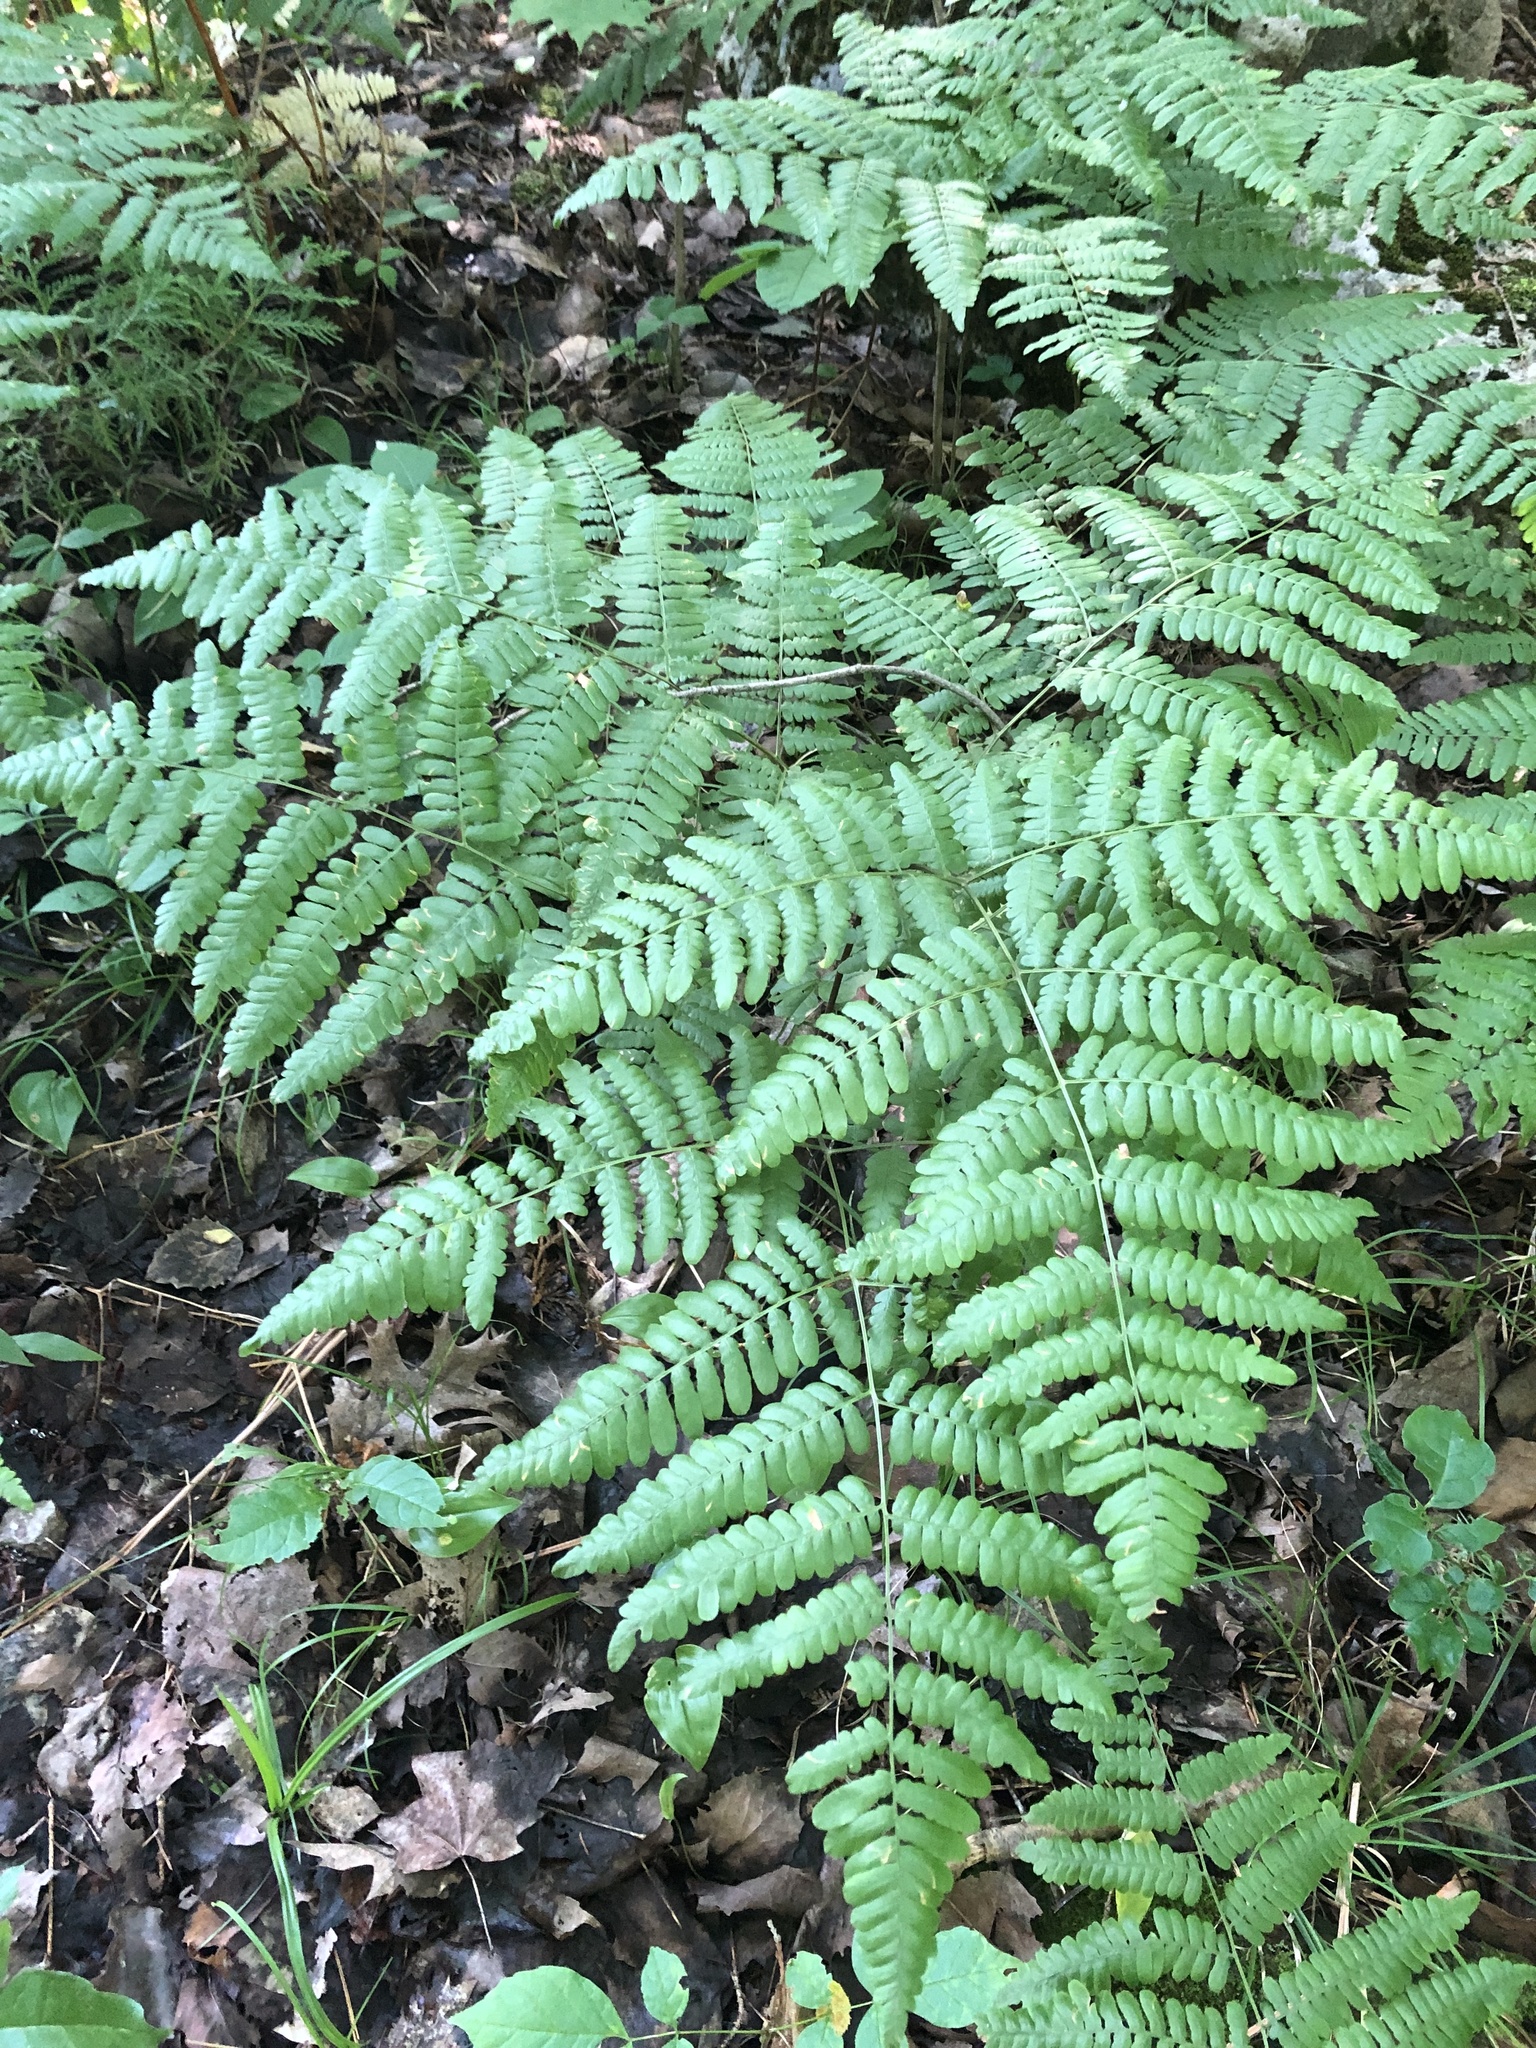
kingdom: Plantae
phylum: Tracheophyta
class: Polypodiopsida
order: Polypodiales
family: Dennstaedtiaceae
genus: Pteridium
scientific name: Pteridium aquilinum
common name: Bracken
